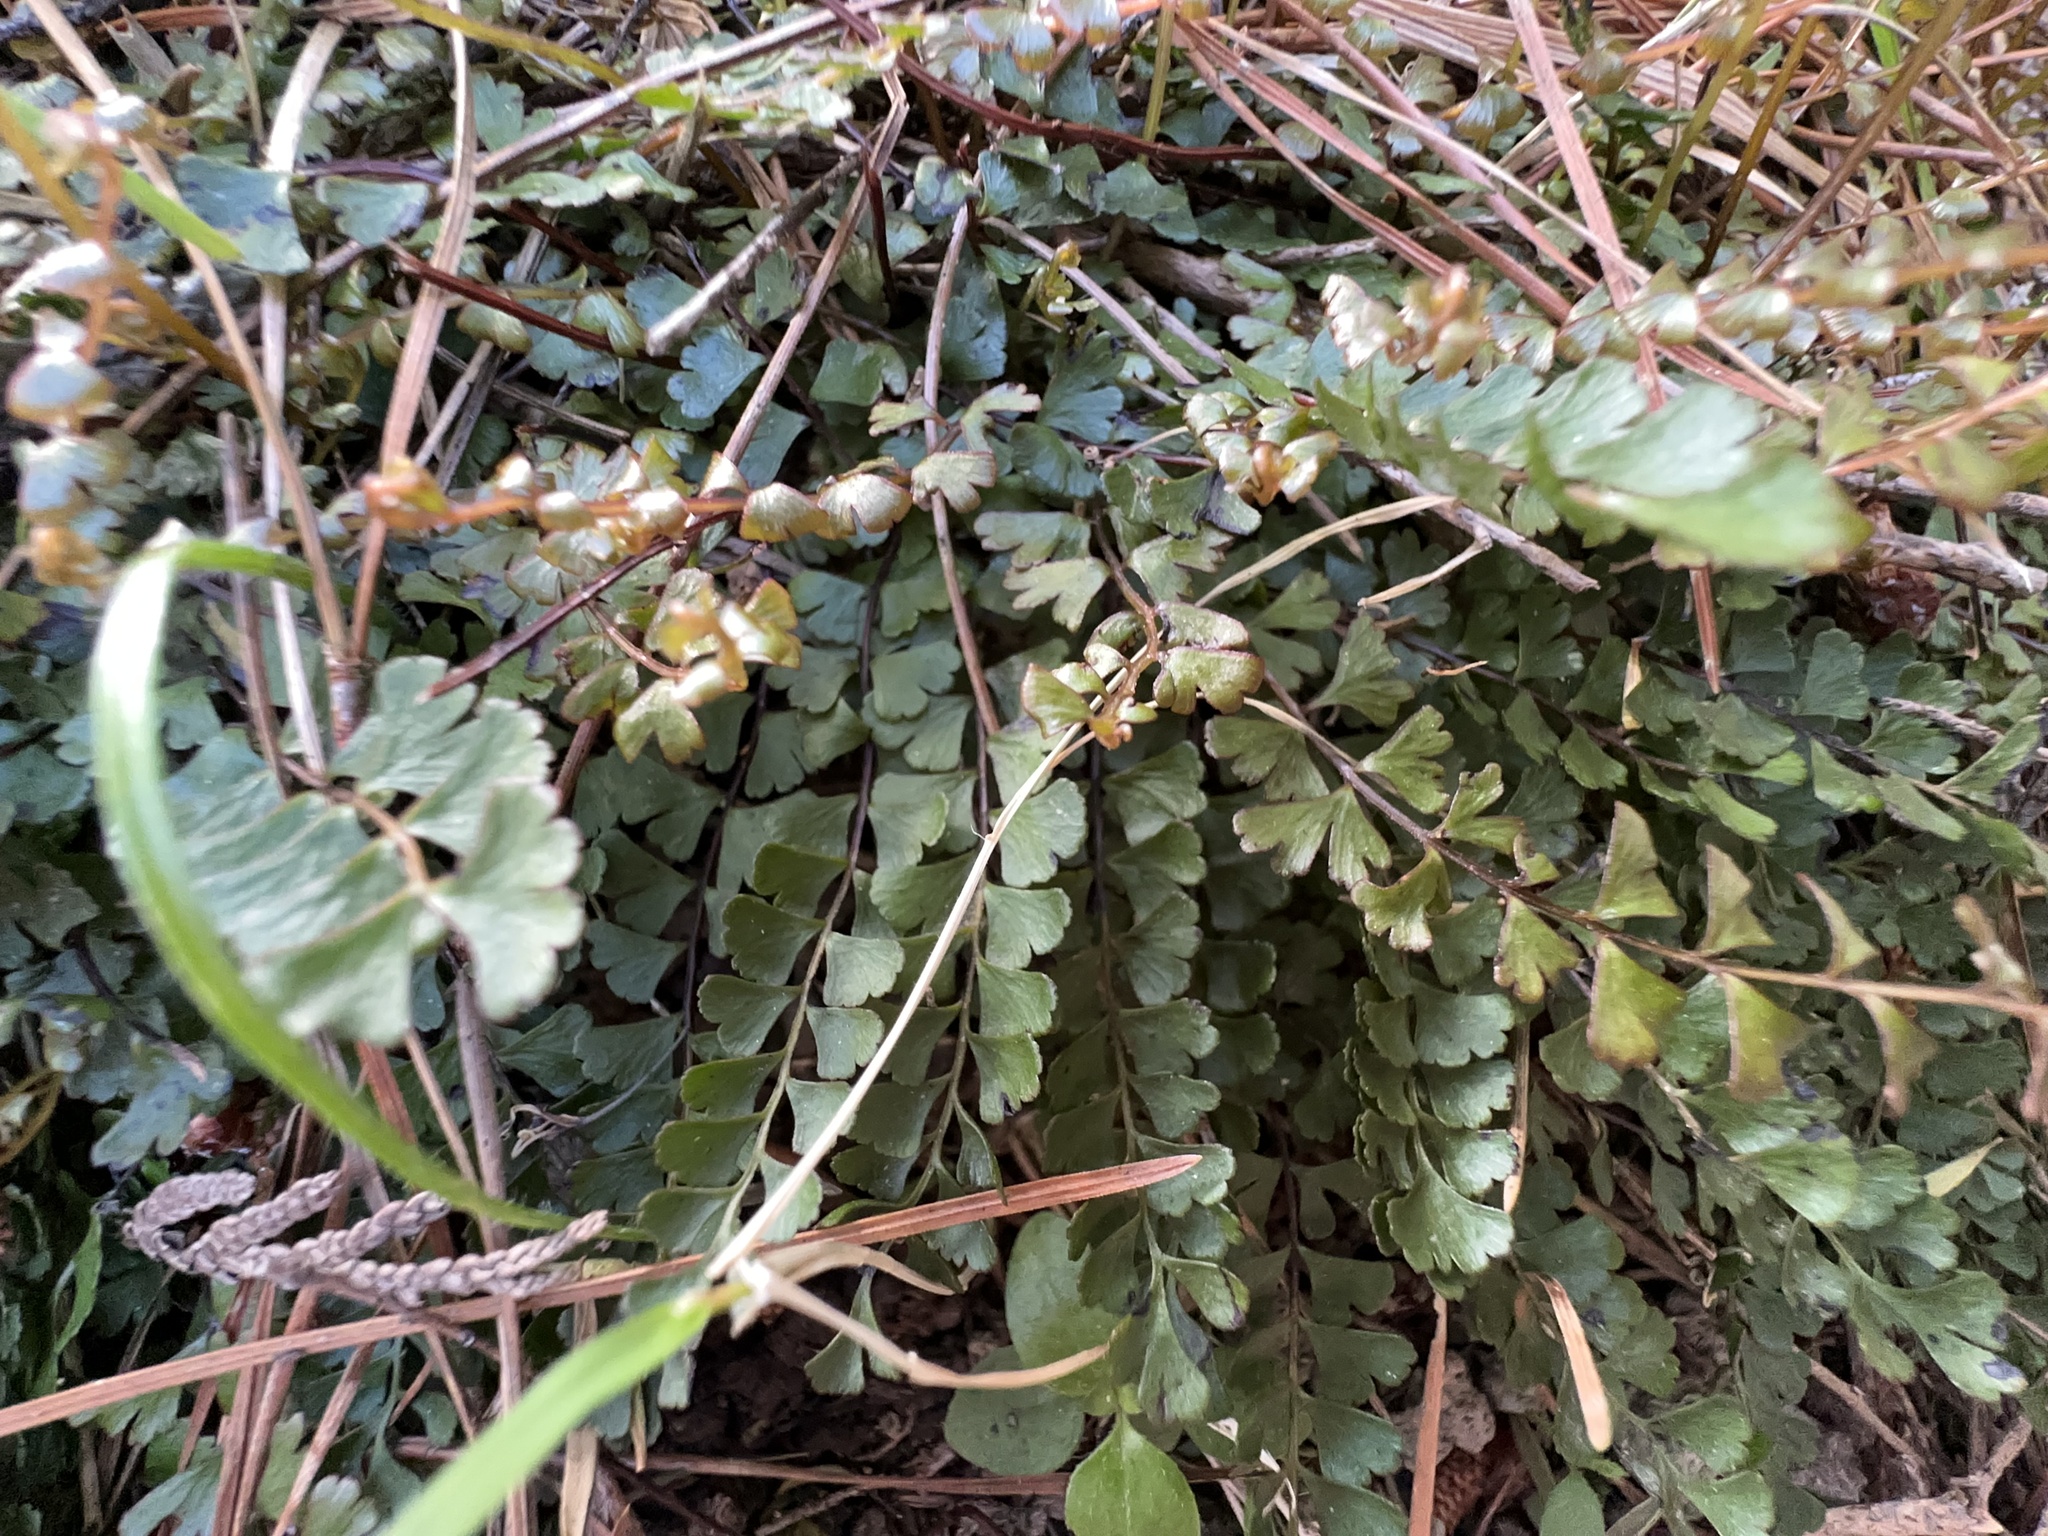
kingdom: Plantae
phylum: Tracheophyta
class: Polypodiopsida
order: Polypodiales
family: Lindsaeaceae
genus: Lindsaea
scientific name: Lindsaea trichomanoides
